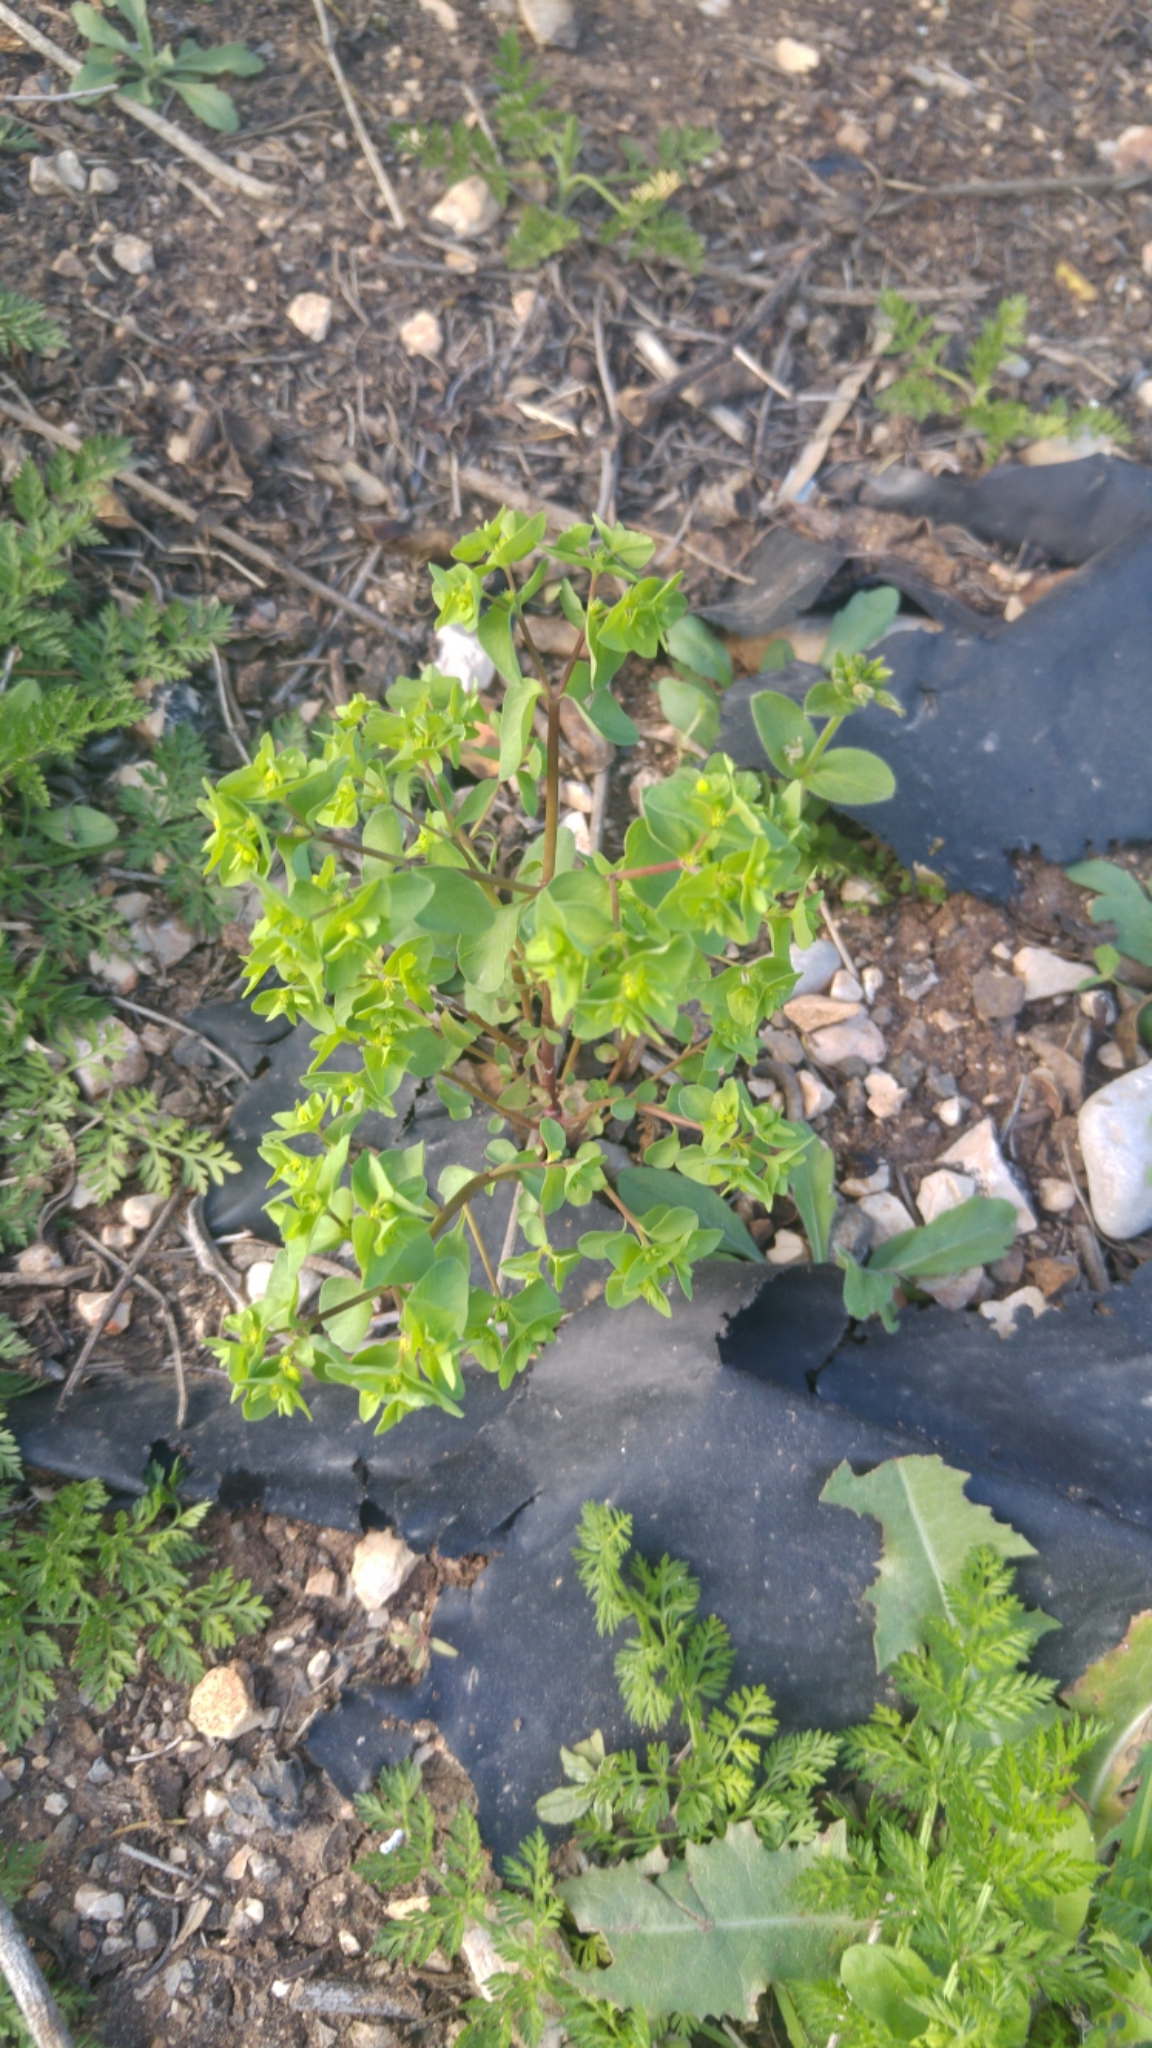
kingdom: Plantae
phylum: Tracheophyta
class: Magnoliopsida
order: Malpighiales
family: Euphorbiaceae
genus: Euphorbia
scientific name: Euphorbia peplus
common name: Petty spurge
